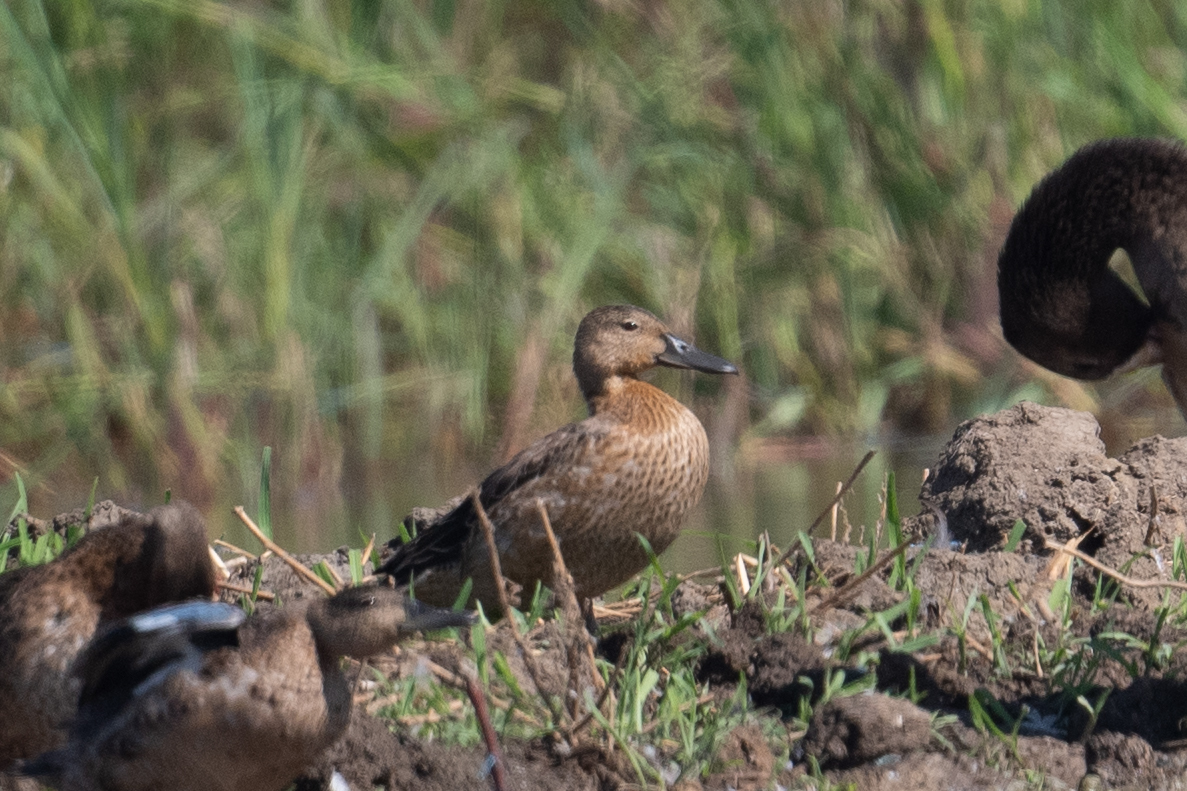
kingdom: Animalia
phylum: Chordata
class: Aves
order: Anseriformes
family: Anatidae
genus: Spatula
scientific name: Spatula cyanoptera
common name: Cinnamon teal
